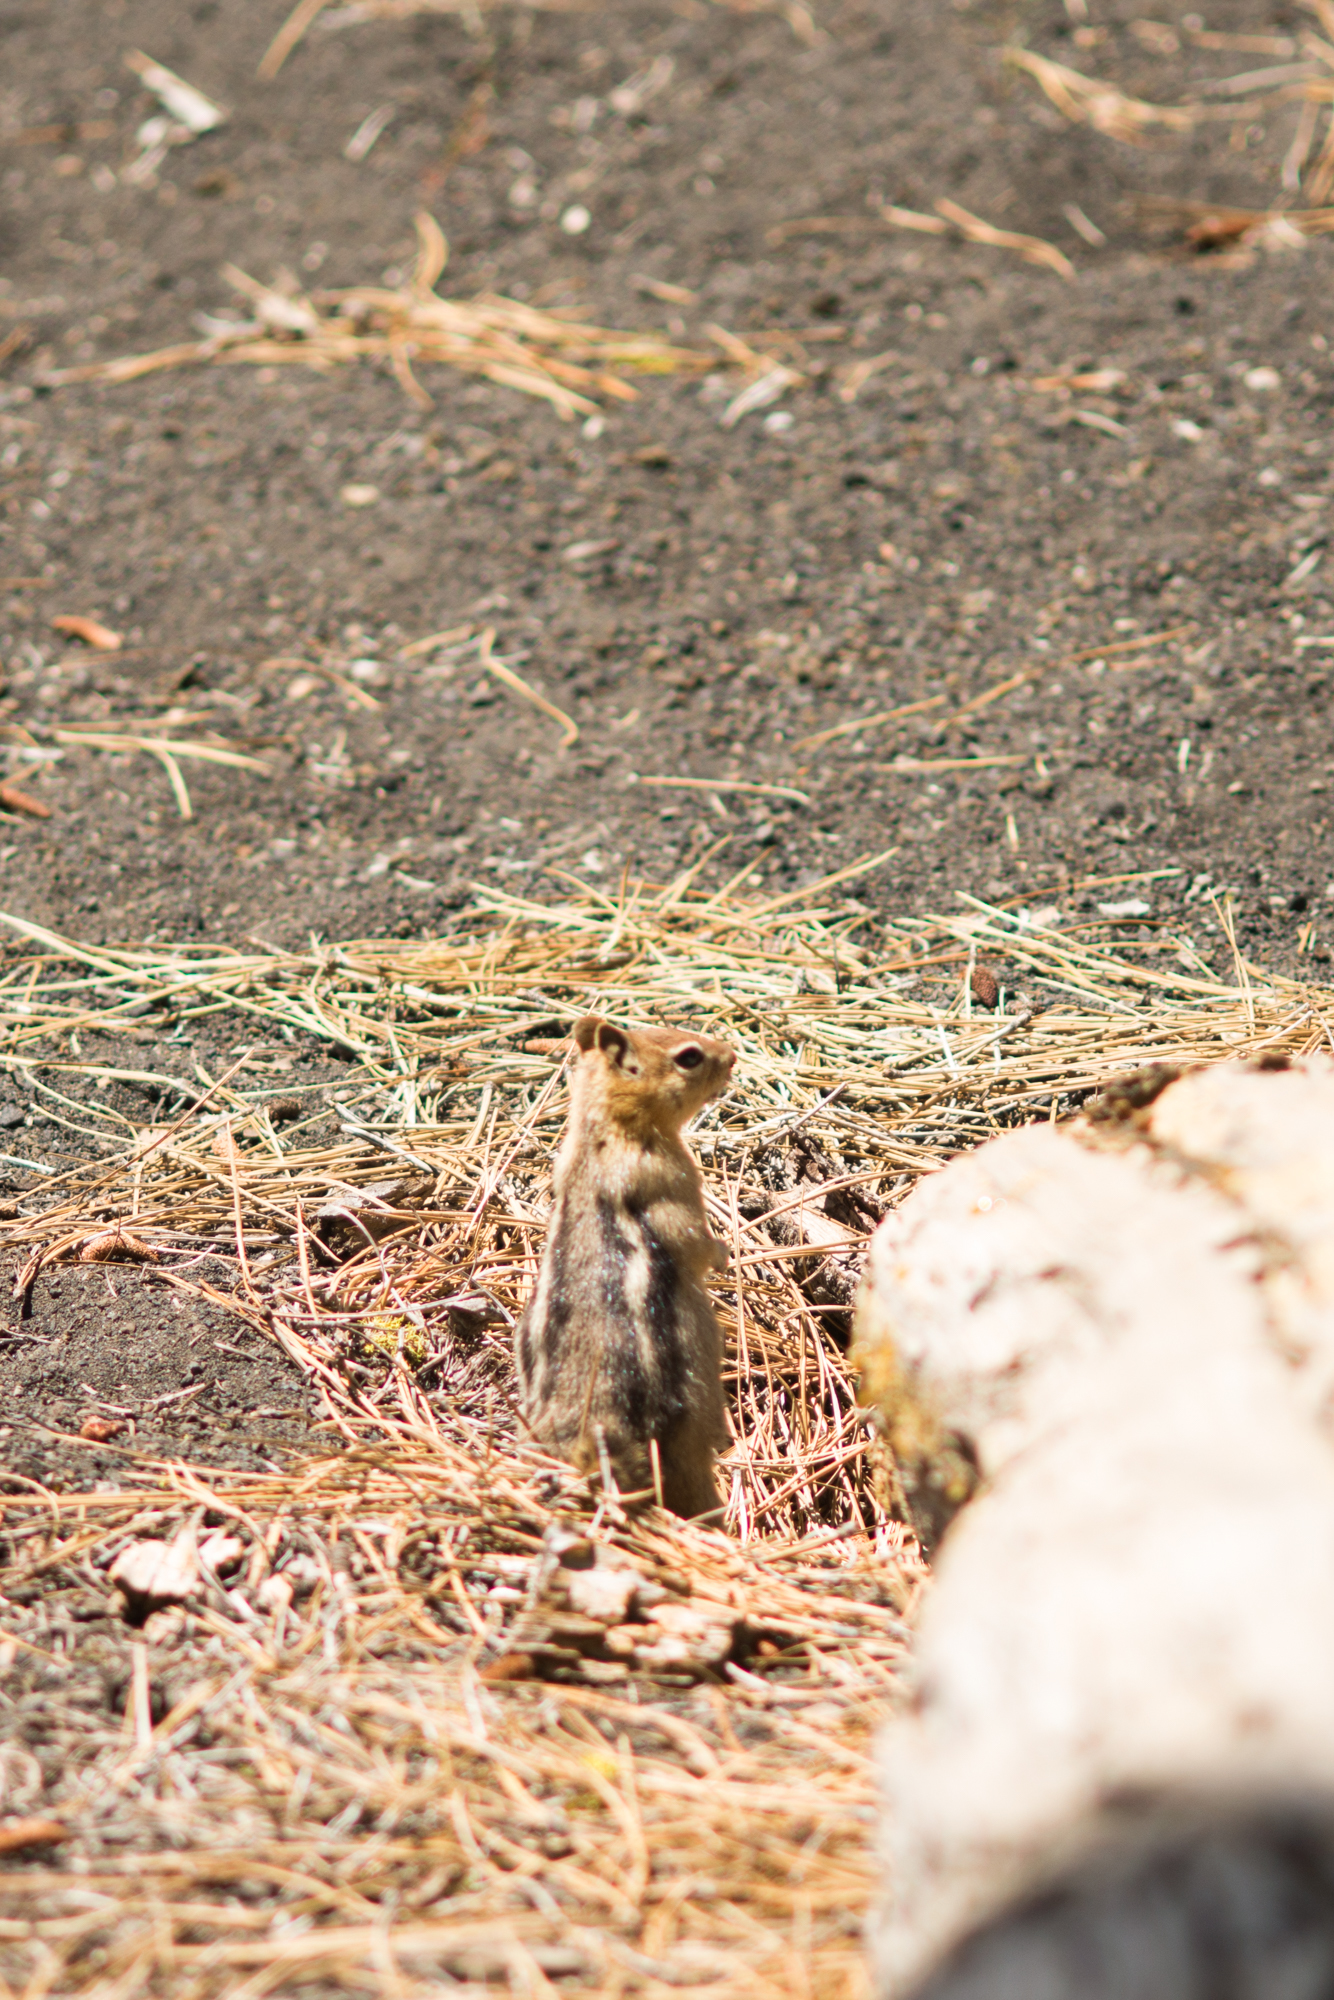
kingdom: Animalia
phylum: Chordata
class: Mammalia
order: Rodentia
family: Sciuridae
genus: Callospermophilus
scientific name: Callospermophilus lateralis
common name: Golden-mantled ground squirrel
